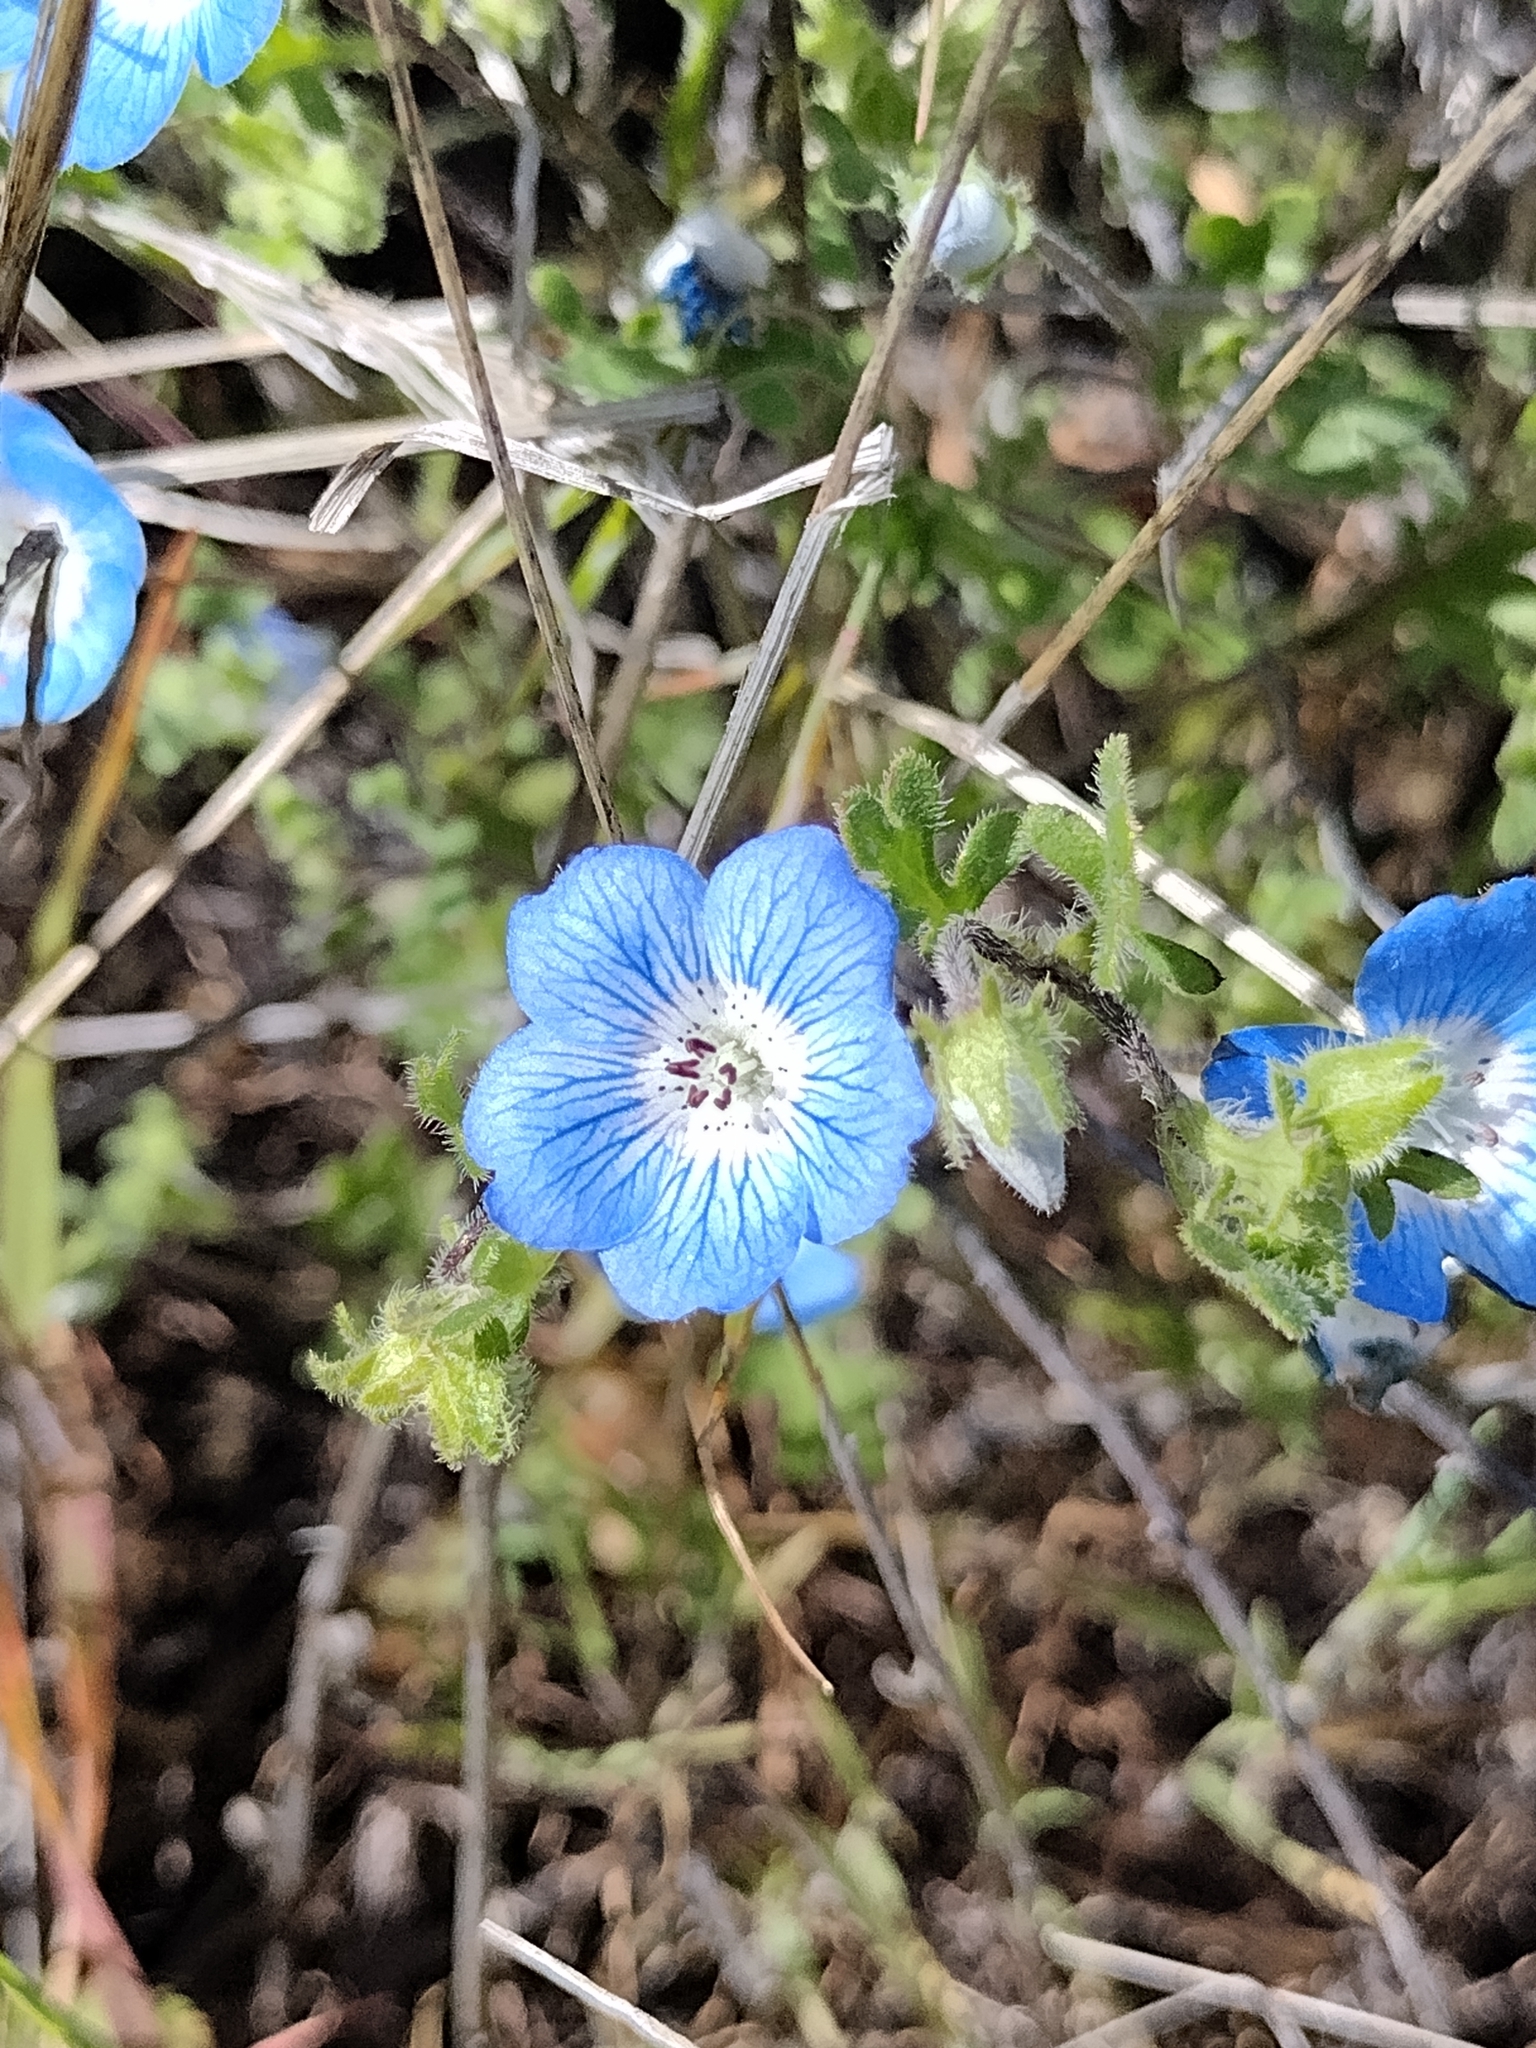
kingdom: Plantae
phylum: Tracheophyta
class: Magnoliopsida
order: Boraginales
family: Hydrophyllaceae
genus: Nemophila
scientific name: Nemophila menziesii
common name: Baby's-blue-eyes
